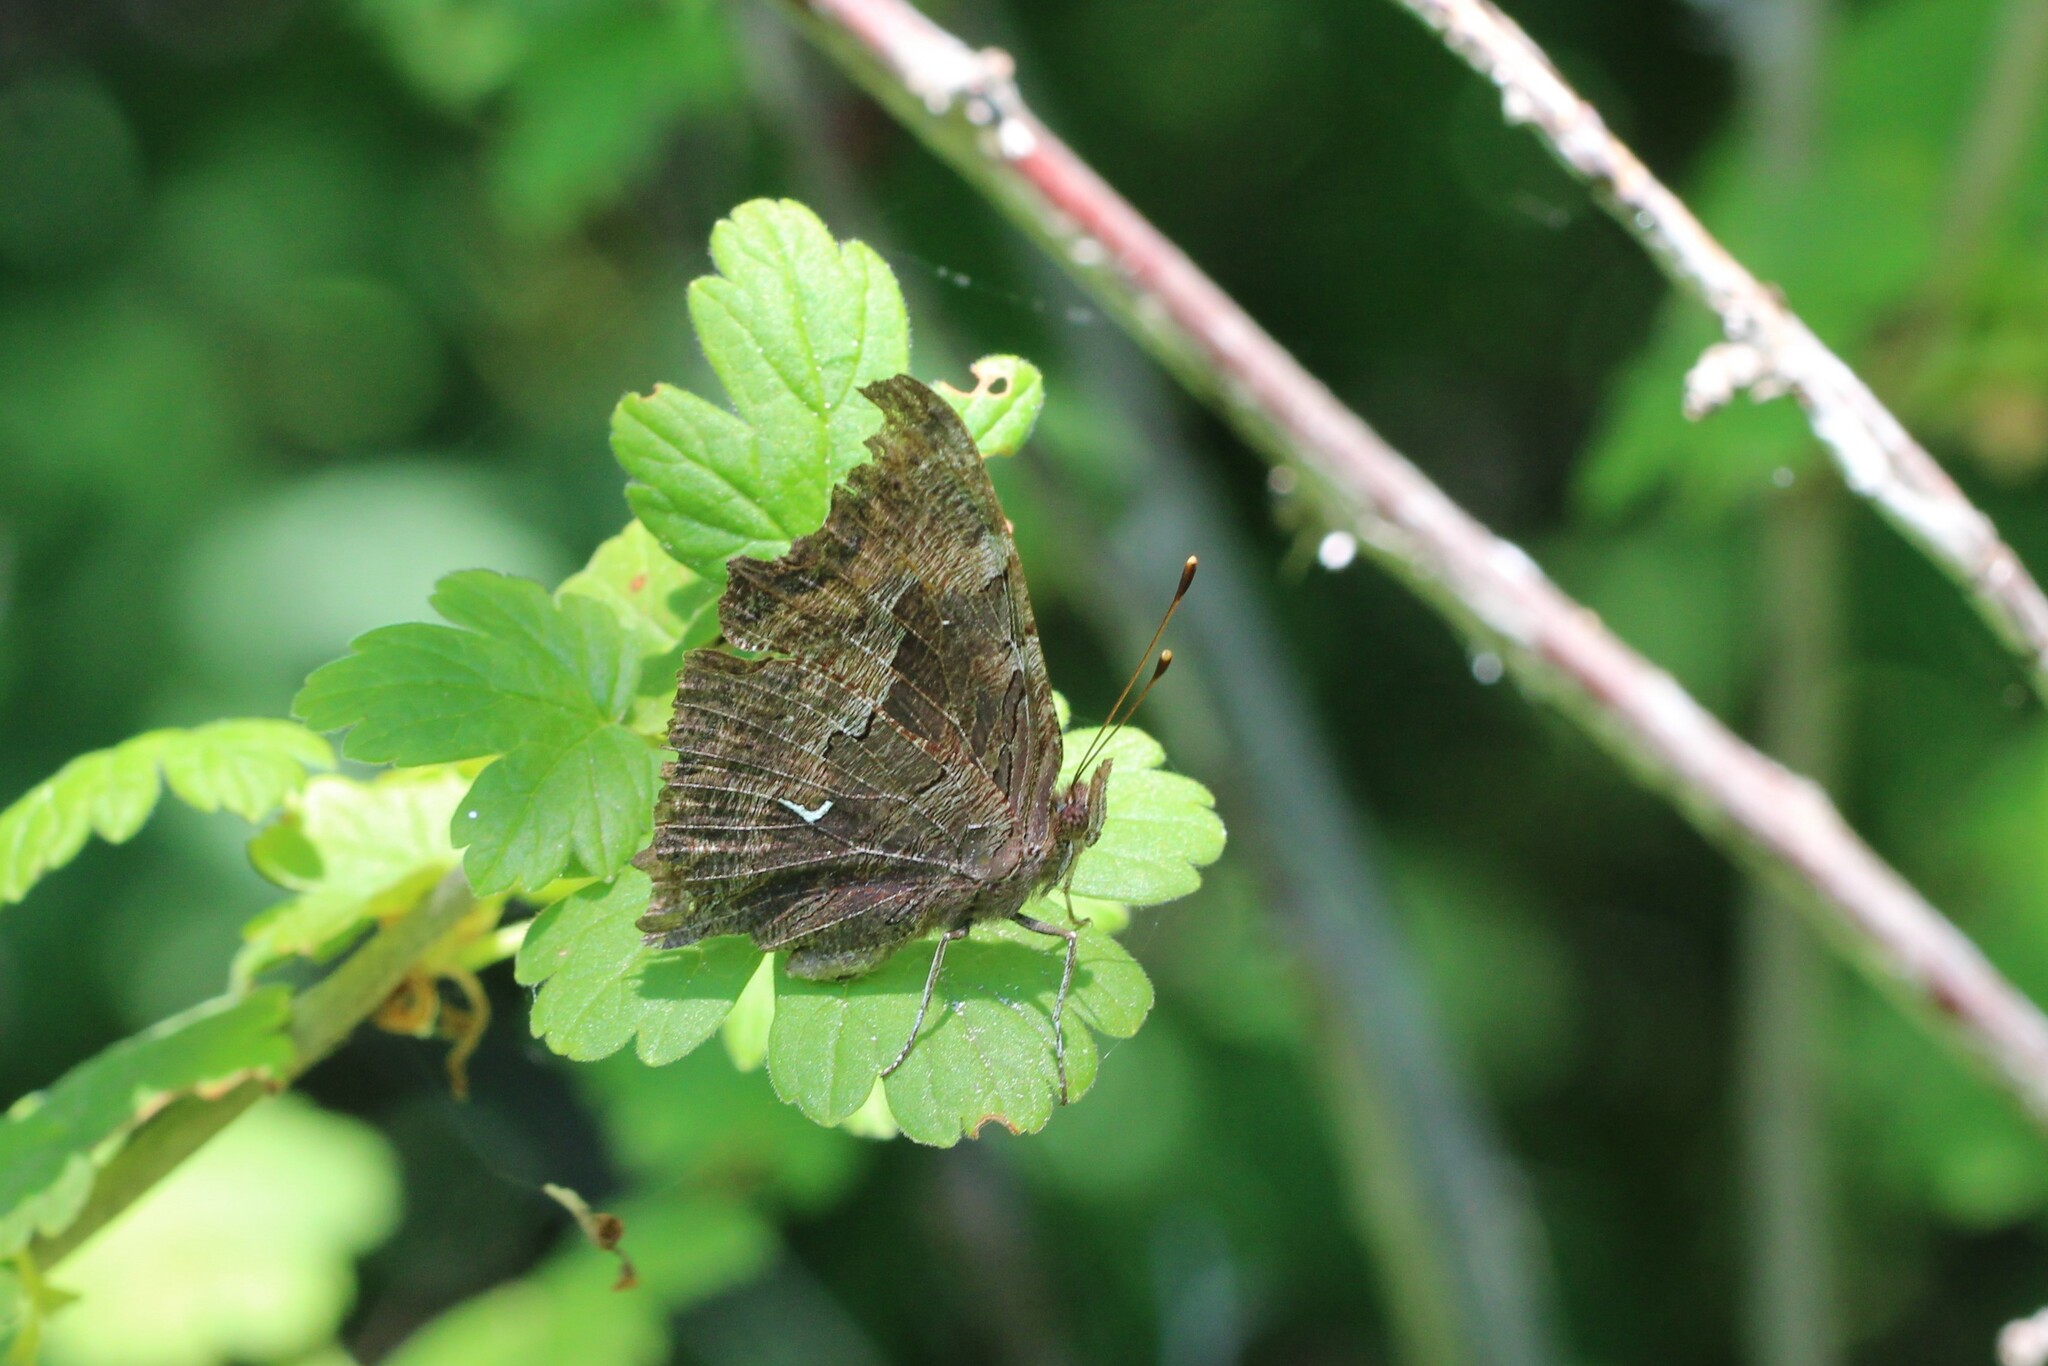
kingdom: Animalia
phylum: Arthropoda
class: Insecta
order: Lepidoptera
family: Nymphalidae
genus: Polygonia
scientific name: Polygonia oreas
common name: Oreas comma
